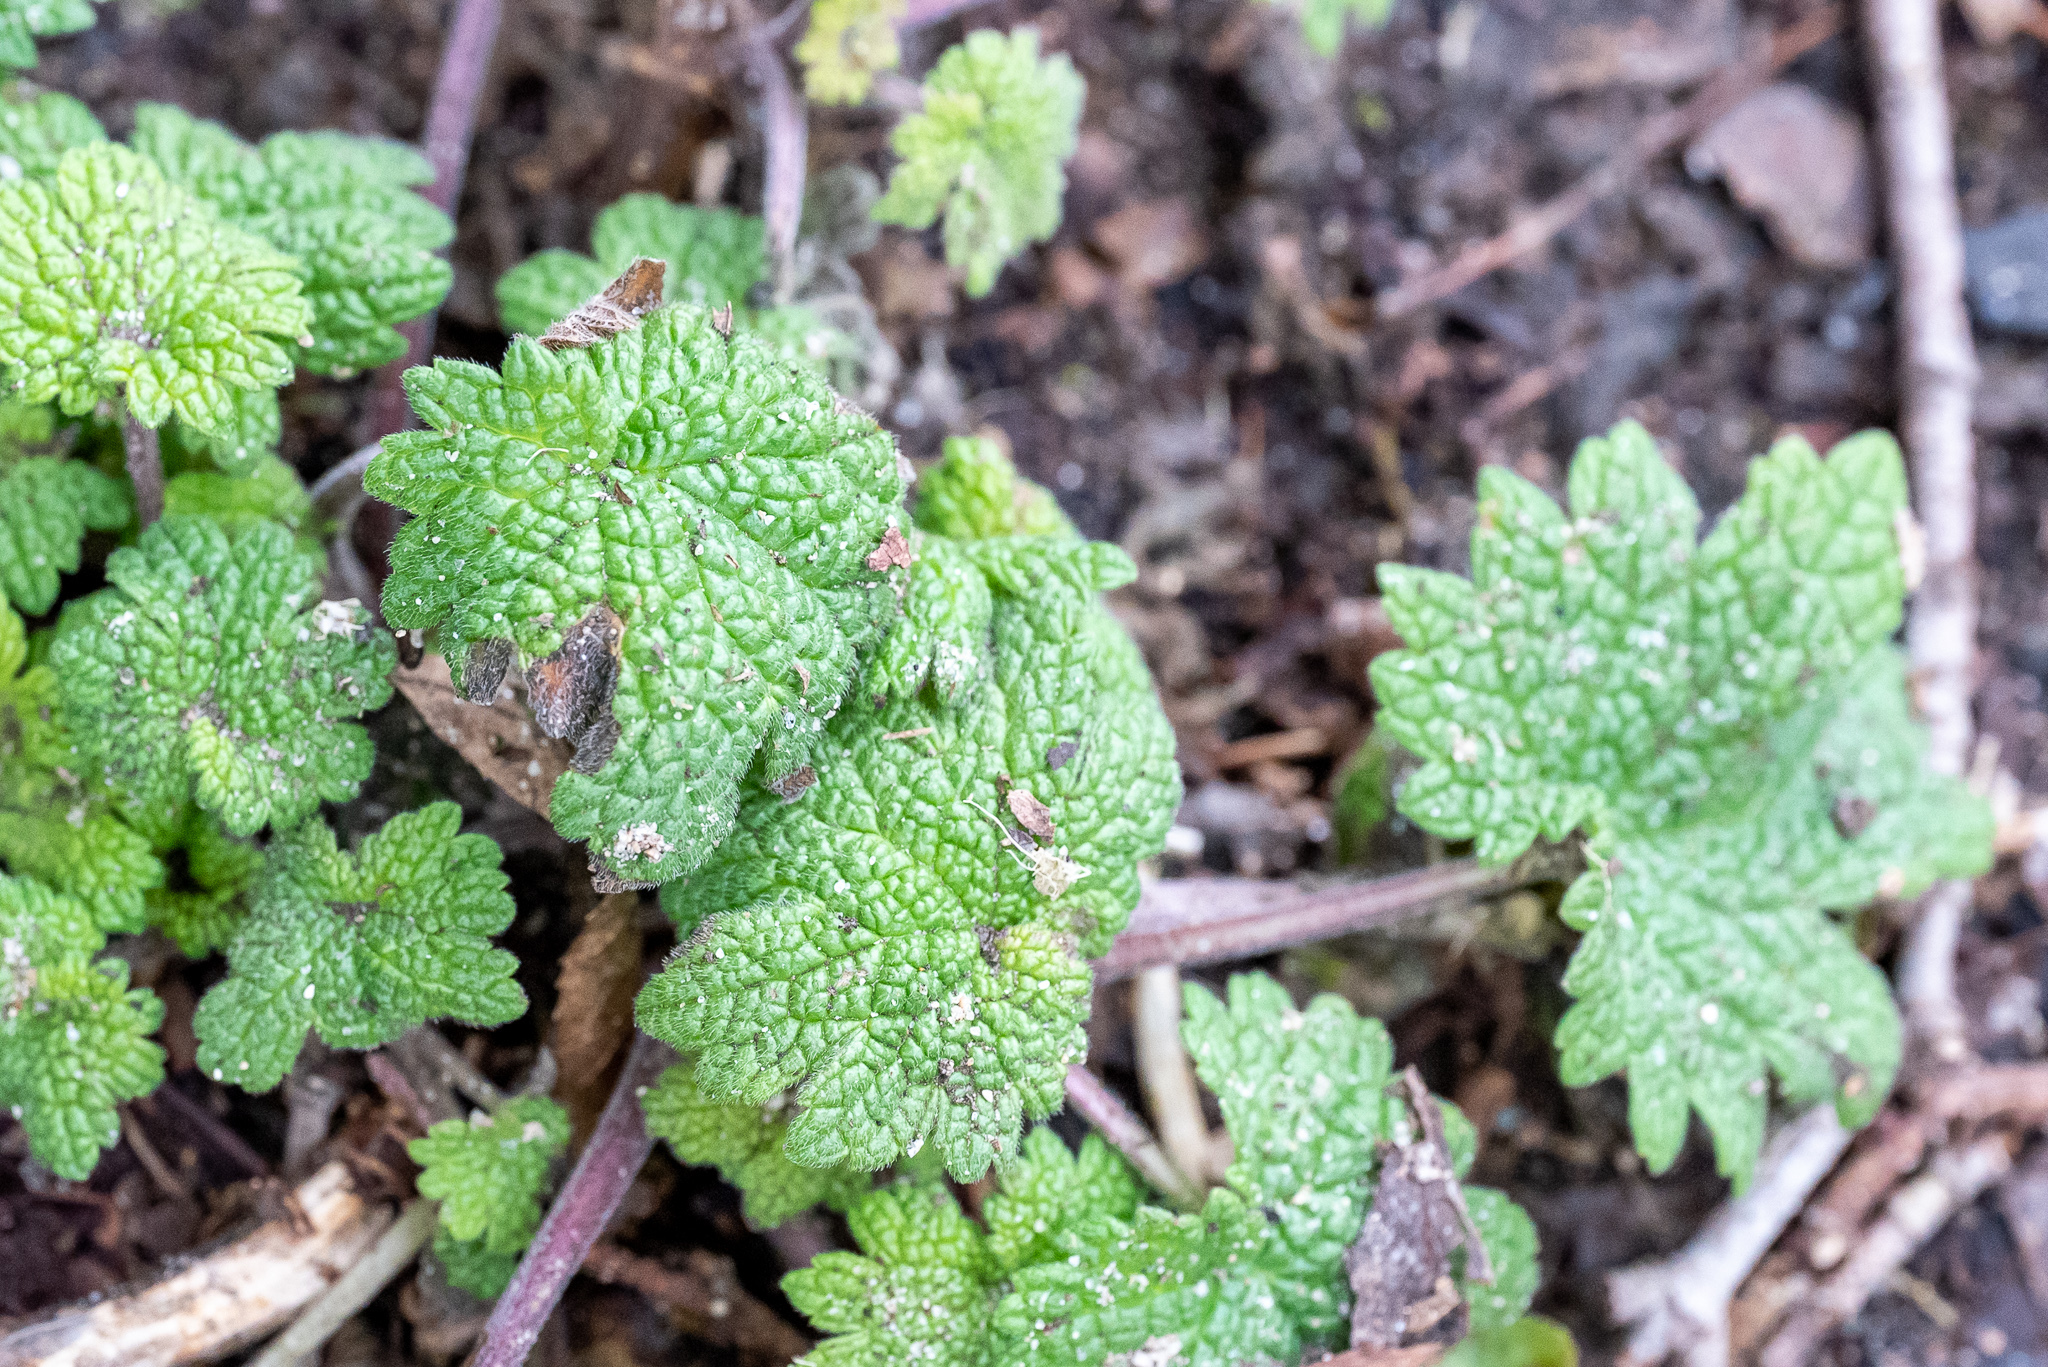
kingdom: Plantae
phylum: Tracheophyta
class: Magnoliopsida
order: Lamiales
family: Lamiaceae
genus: Leonurus
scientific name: Leonurus cardiaca
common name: Motherwort
